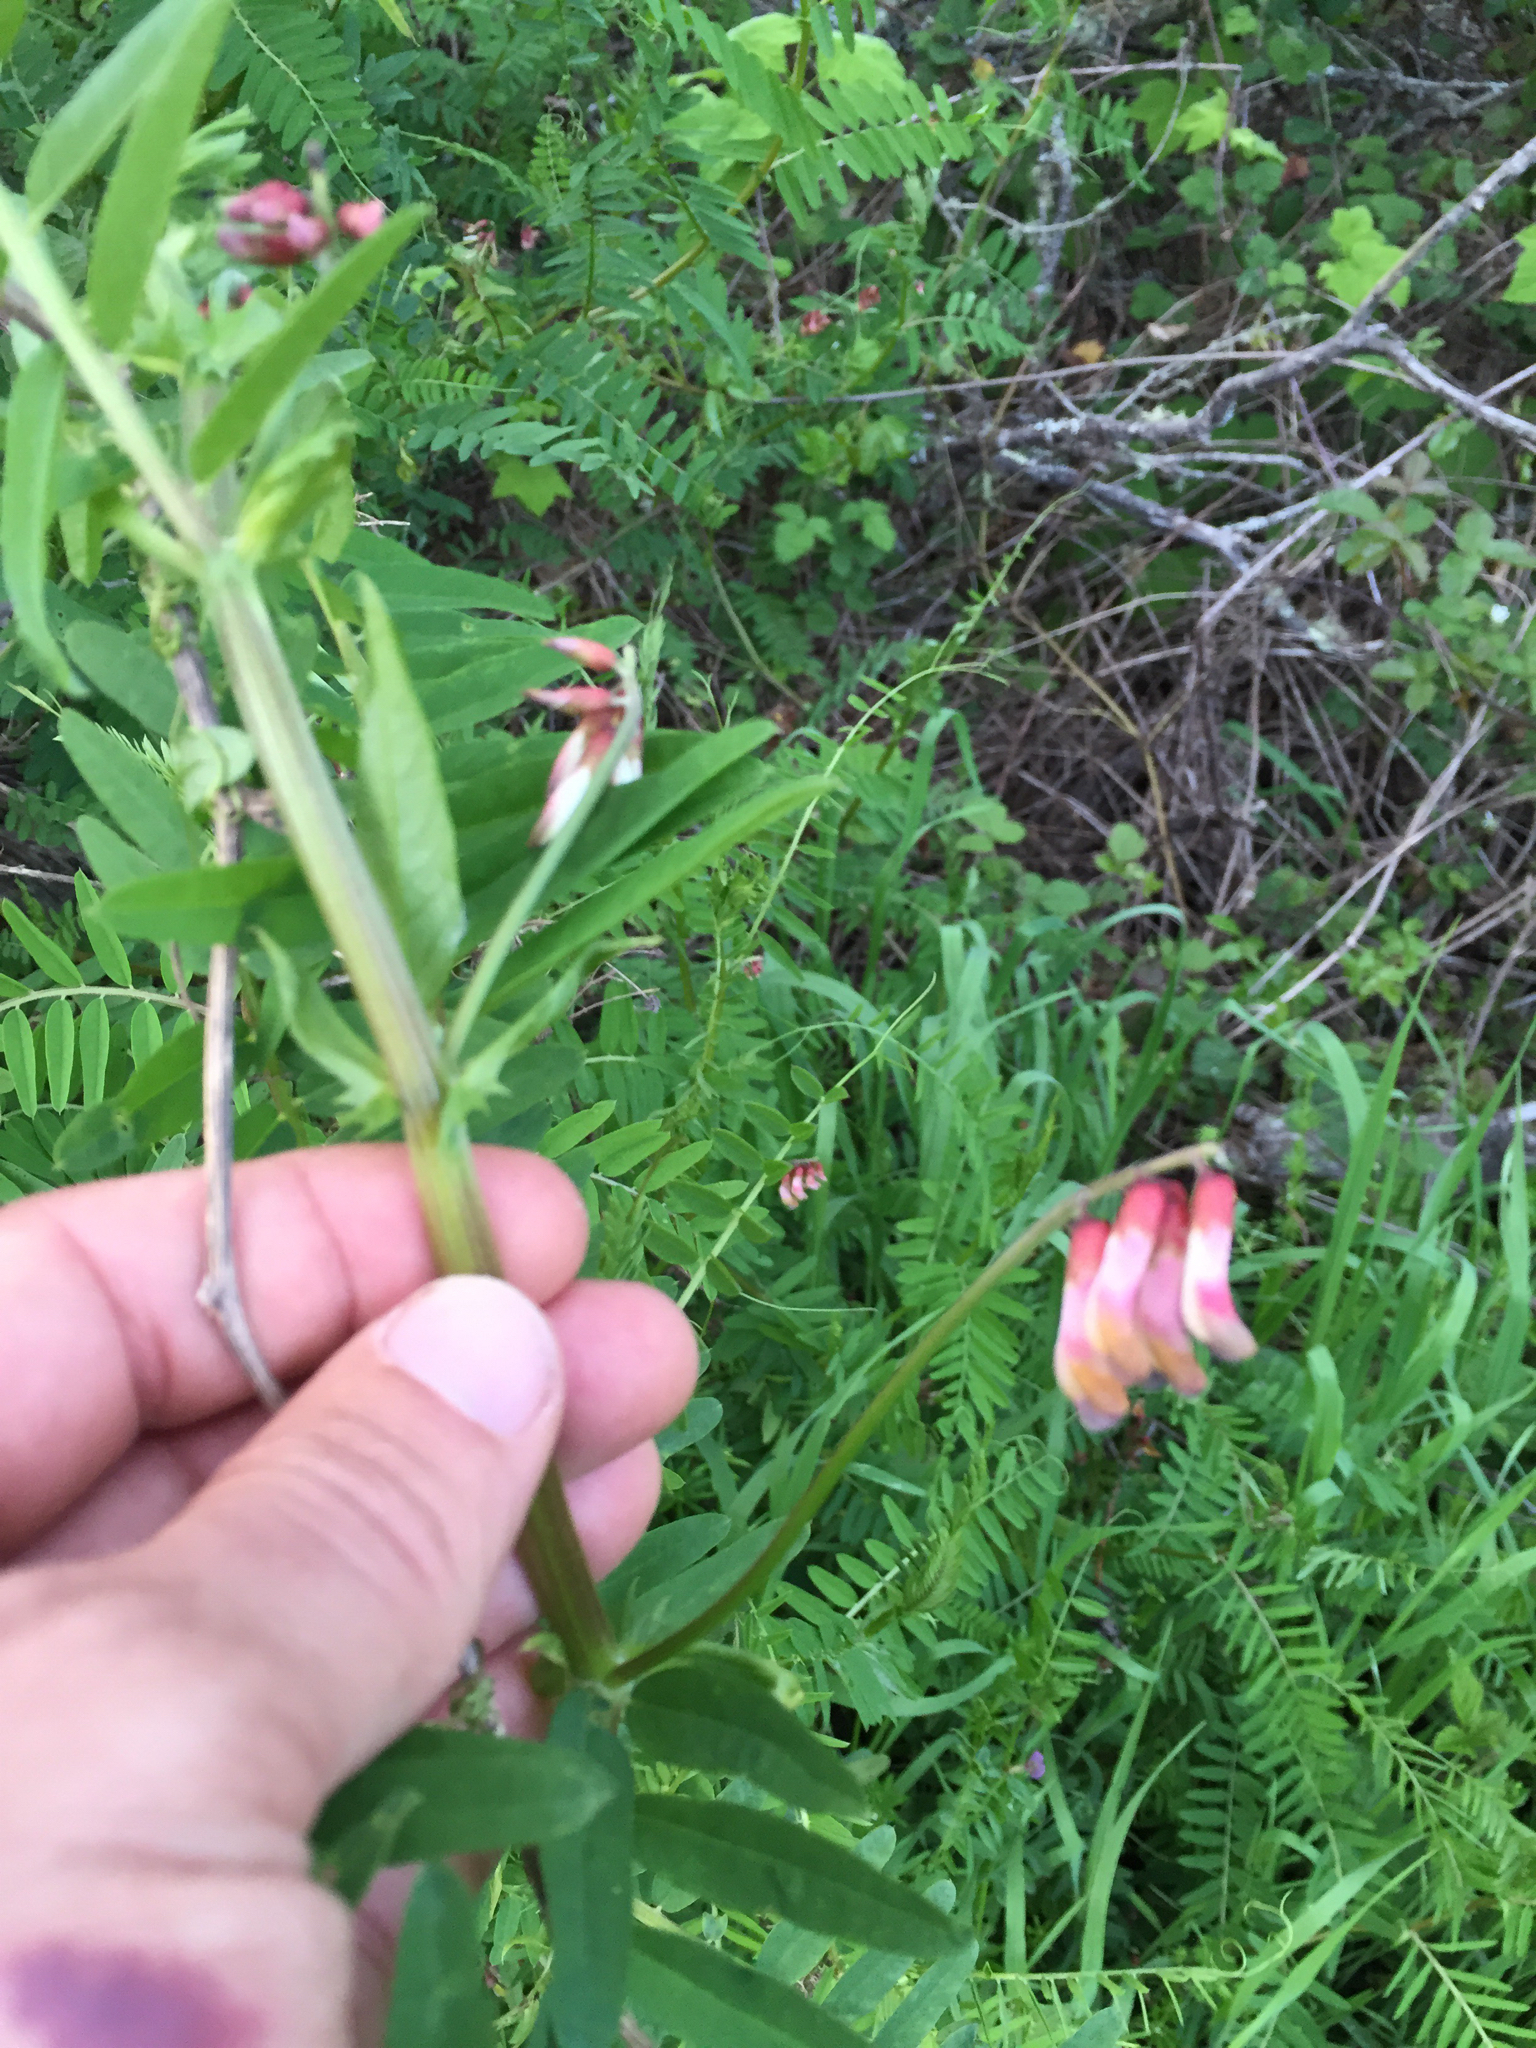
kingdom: Plantae
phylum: Tracheophyta
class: Magnoliopsida
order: Fabales
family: Fabaceae
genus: Vicia
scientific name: Vicia
